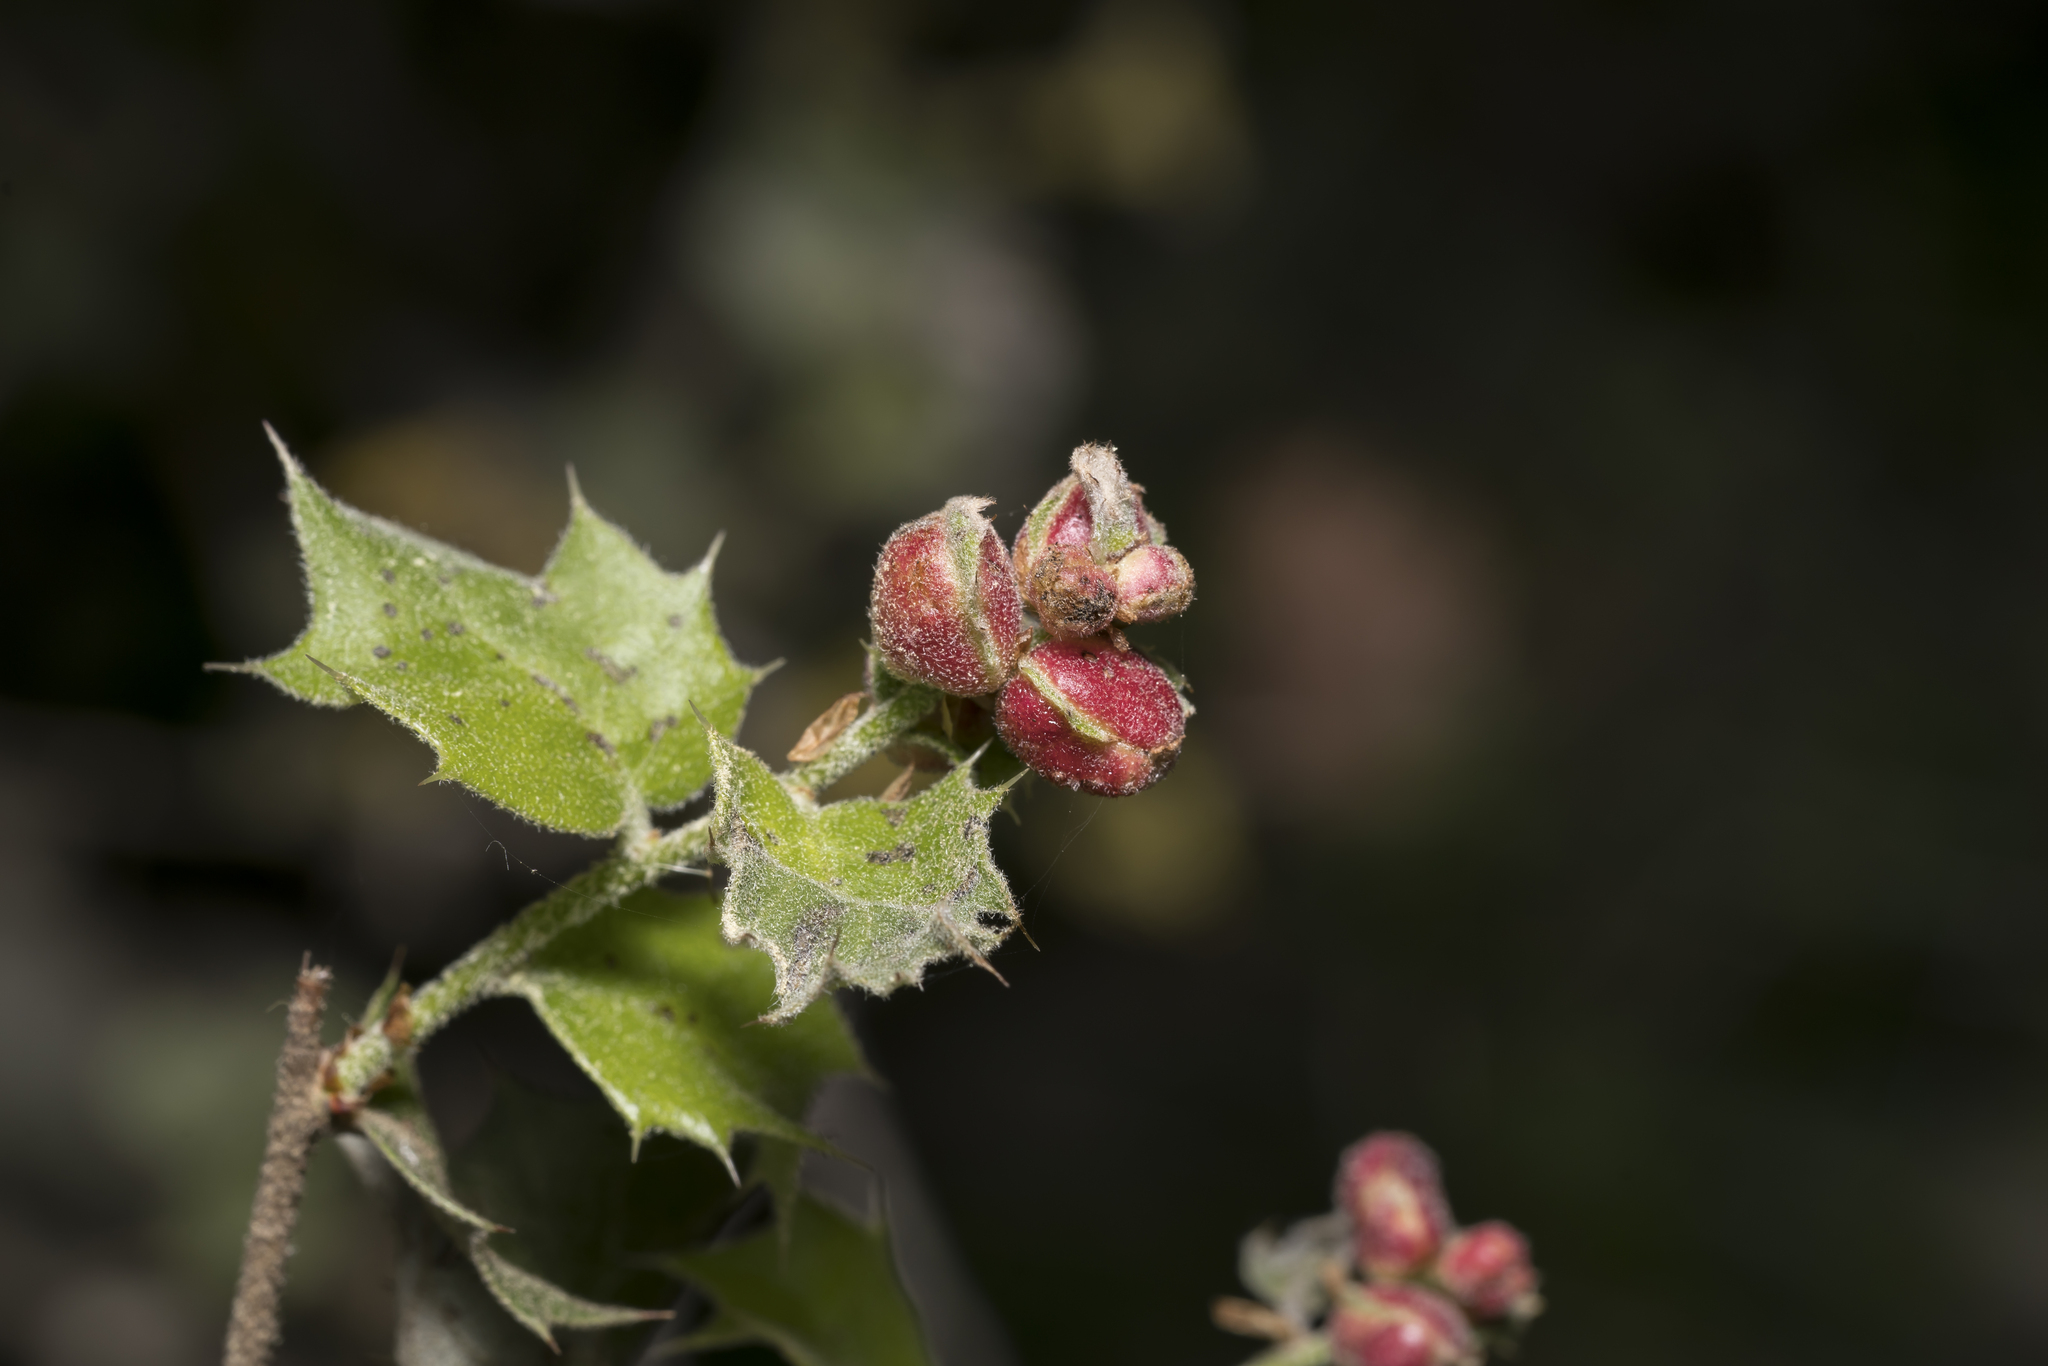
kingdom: Animalia
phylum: Arthropoda
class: Insecta
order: Hymenoptera
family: Cynipidae
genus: Plagiotrochus
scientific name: Plagiotrochus quercusilicis
